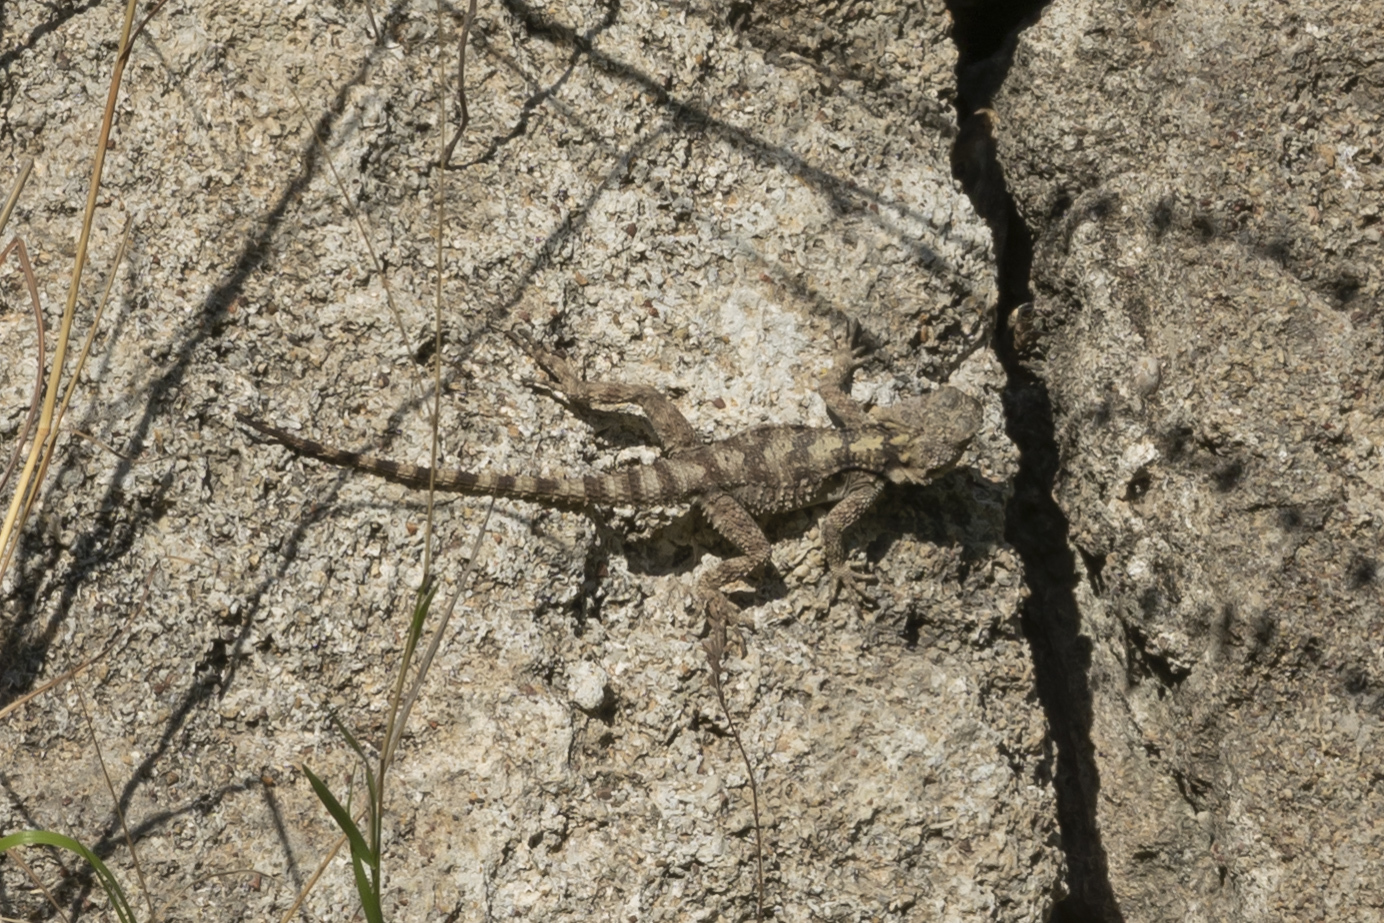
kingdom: Animalia
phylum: Chordata
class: Squamata
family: Agamidae
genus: Stellagama
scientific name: Stellagama stellio
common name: Starred agama
